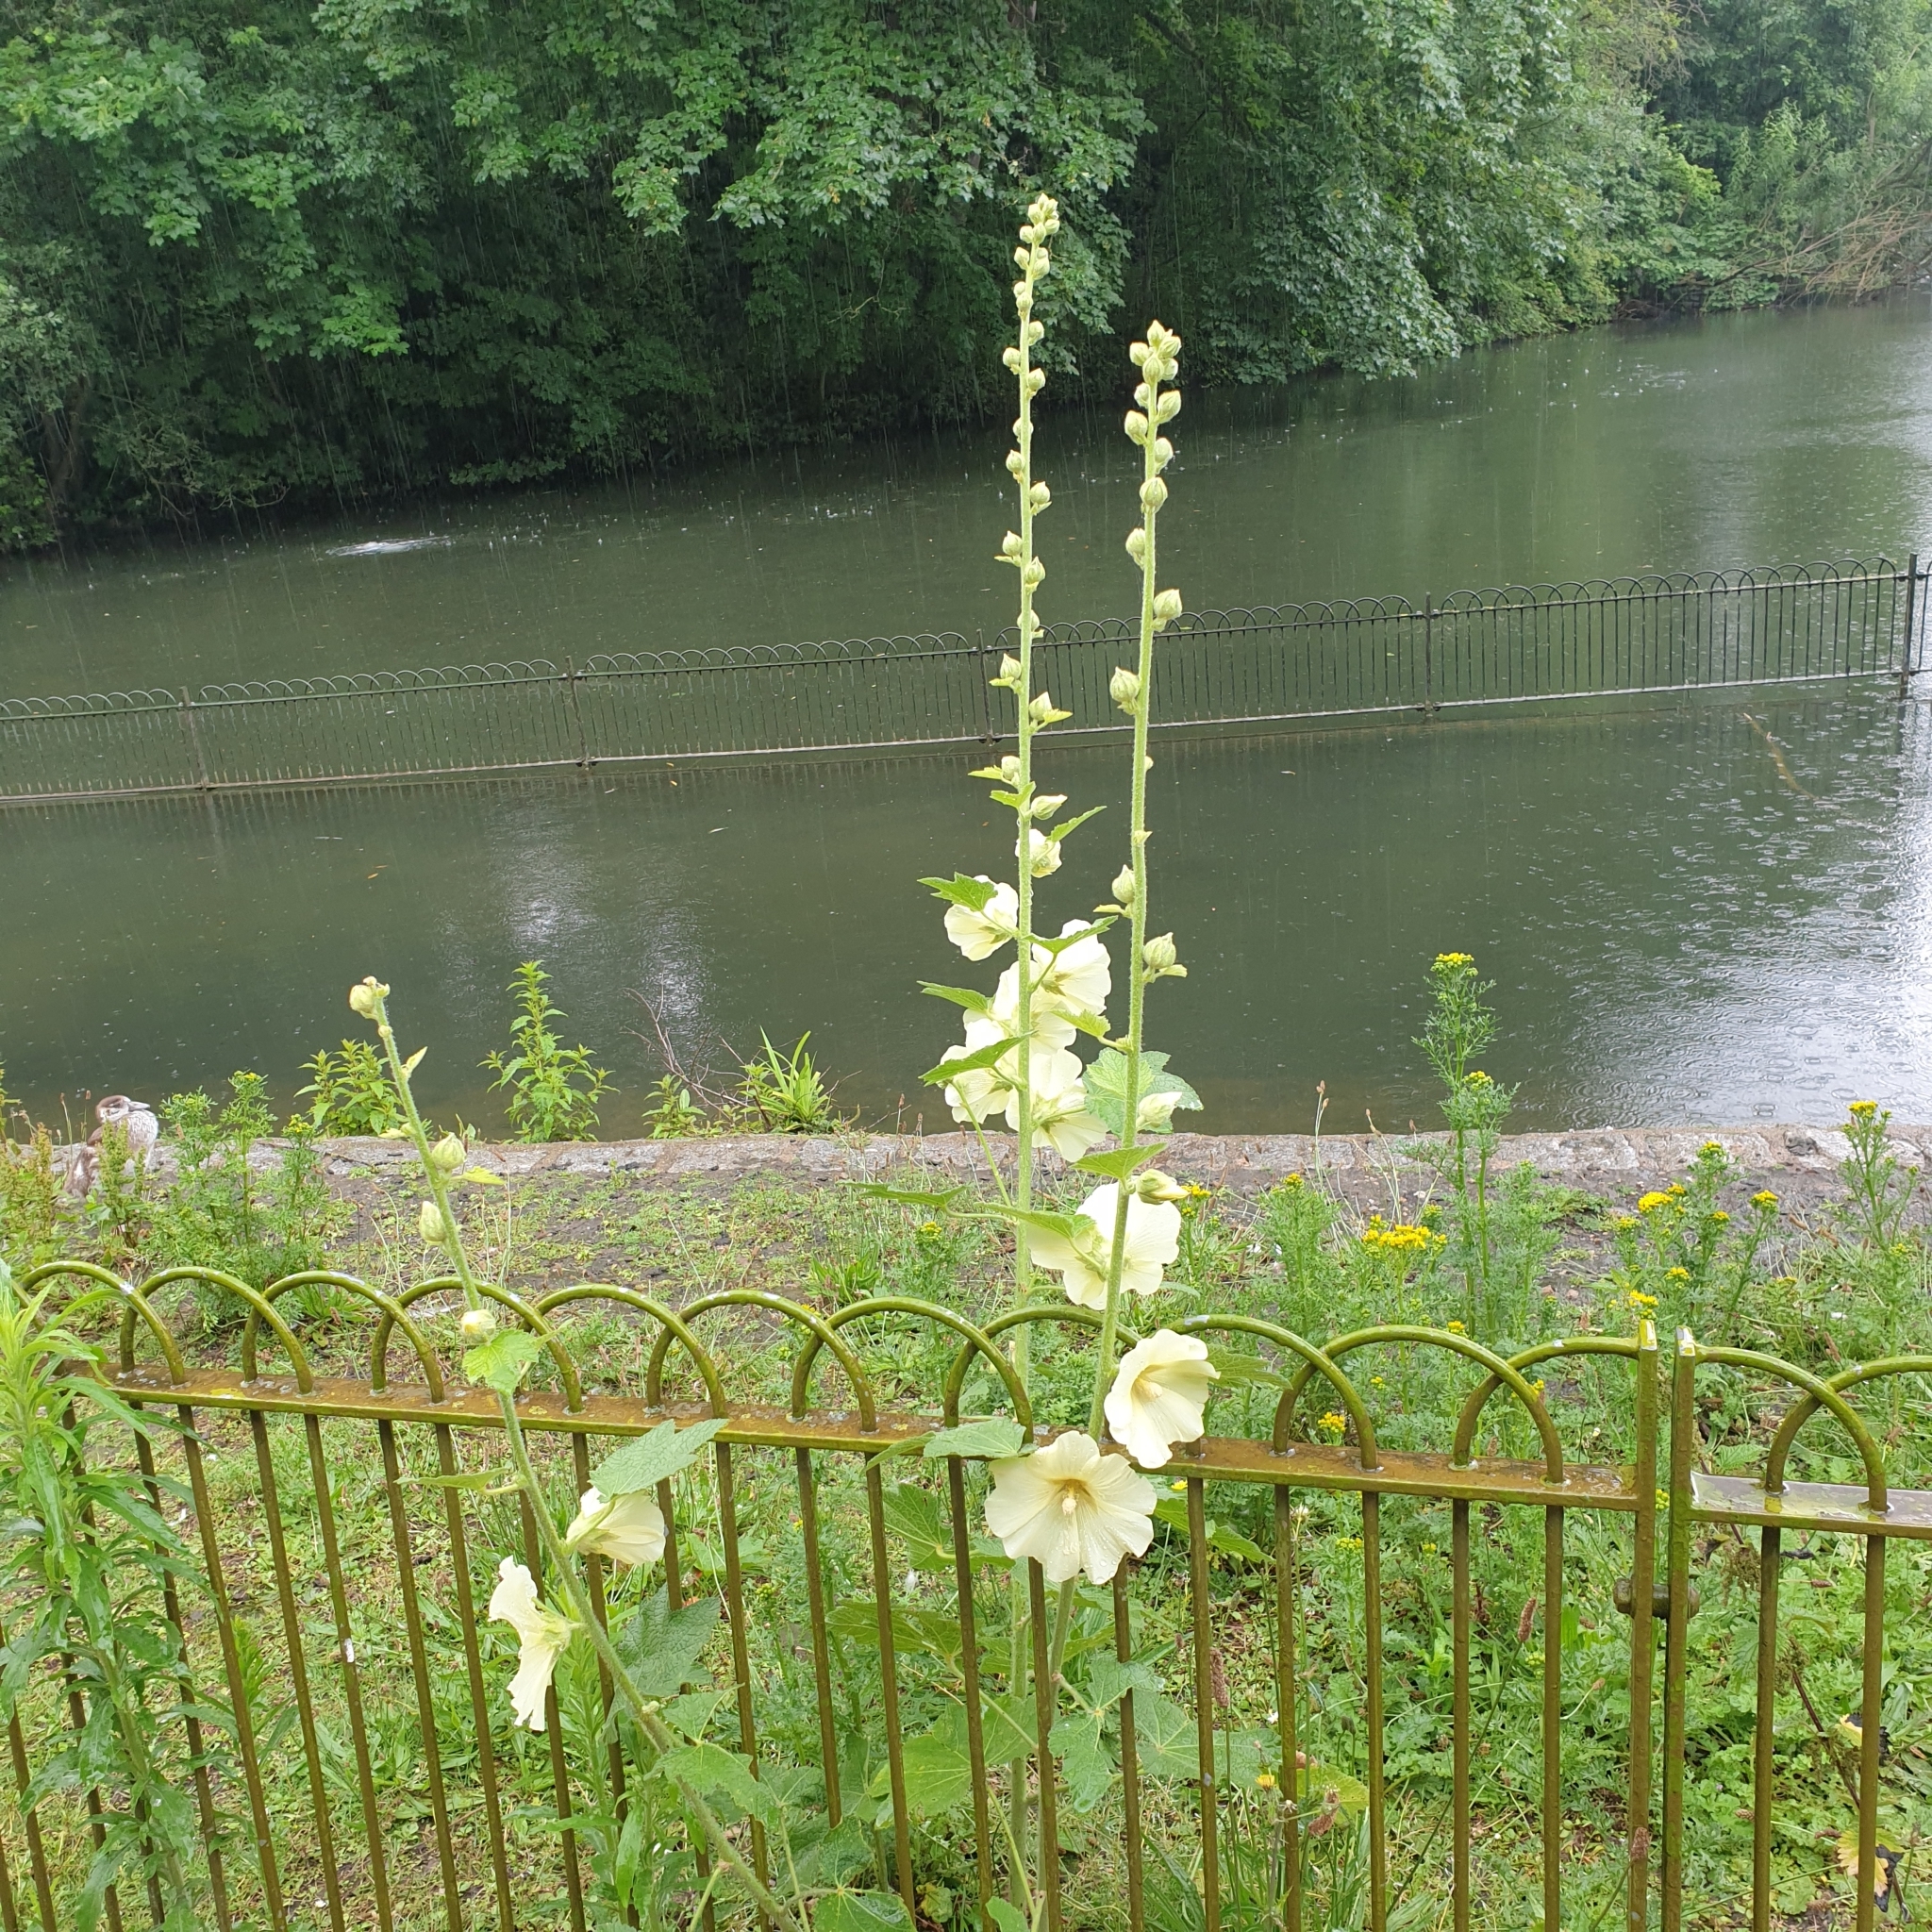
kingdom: Plantae
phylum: Tracheophyta
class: Magnoliopsida
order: Malvales
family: Malvaceae
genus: Alcea
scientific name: Alcea rosea
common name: Hollyhock
